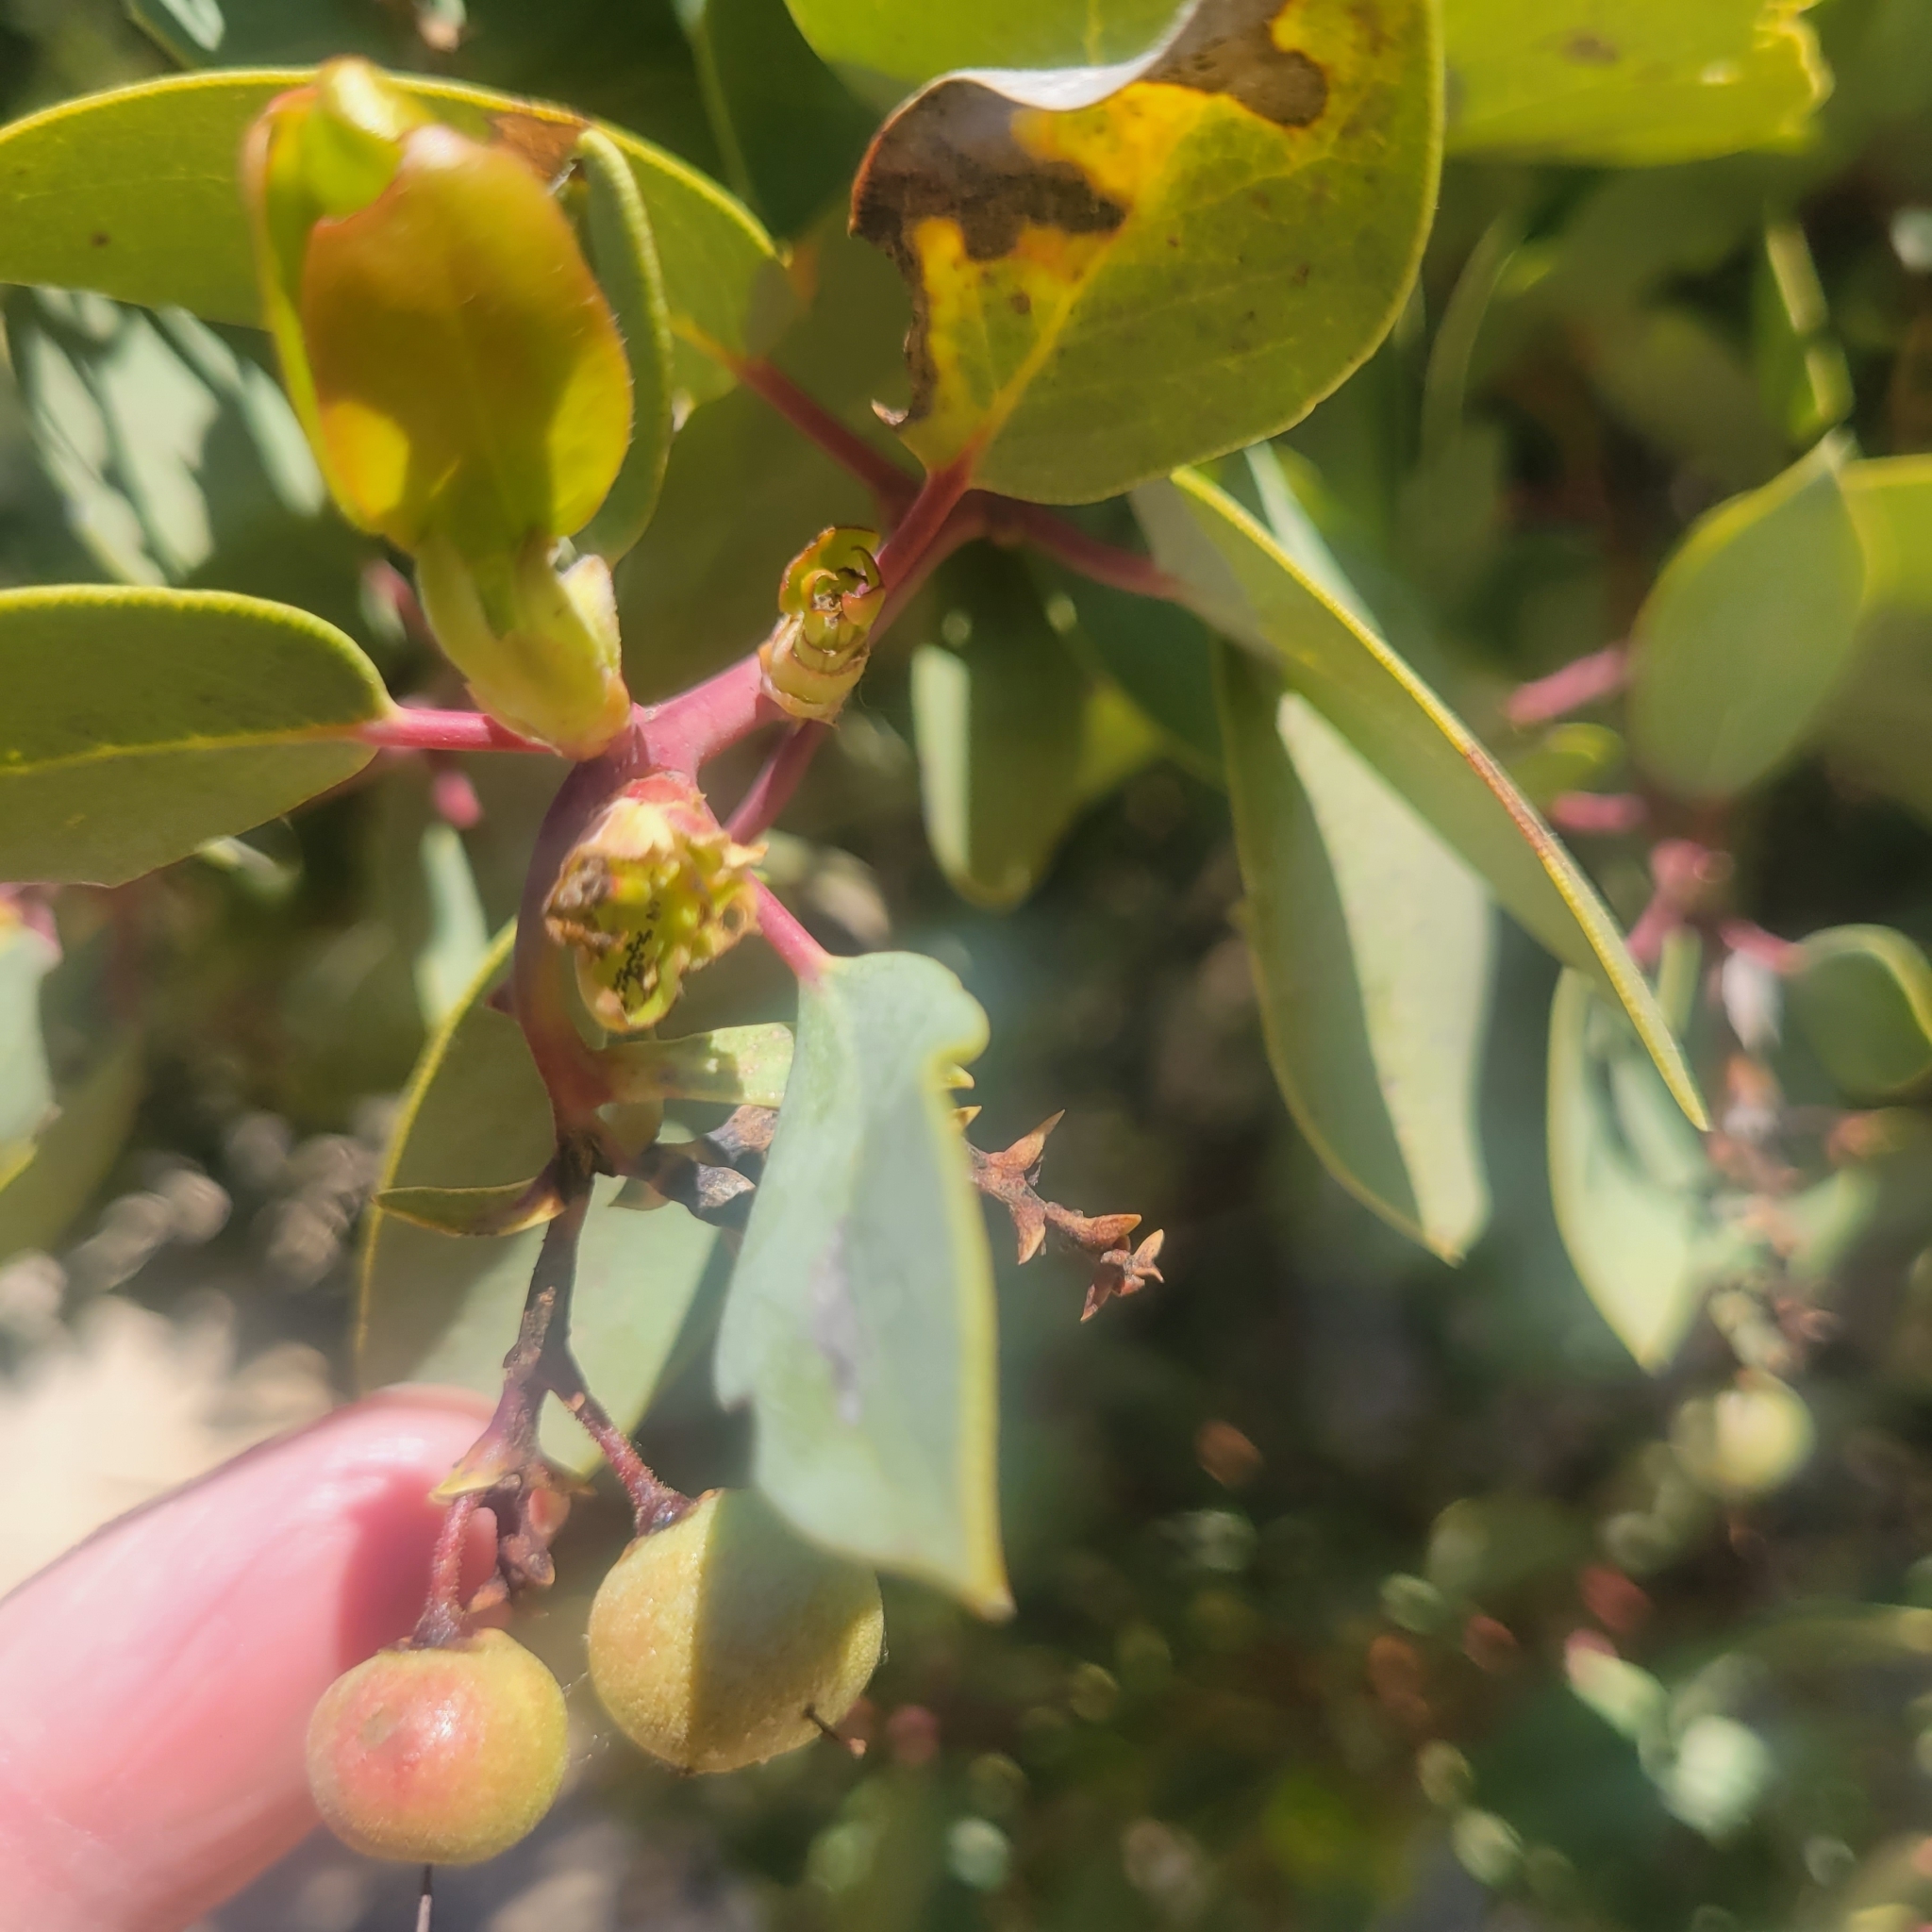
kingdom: Plantae
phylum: Tracheophyta
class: Magnoliopsida
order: Ericales
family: Ericaceae
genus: Arctostaphylos
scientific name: Arctostaphylos glauca
